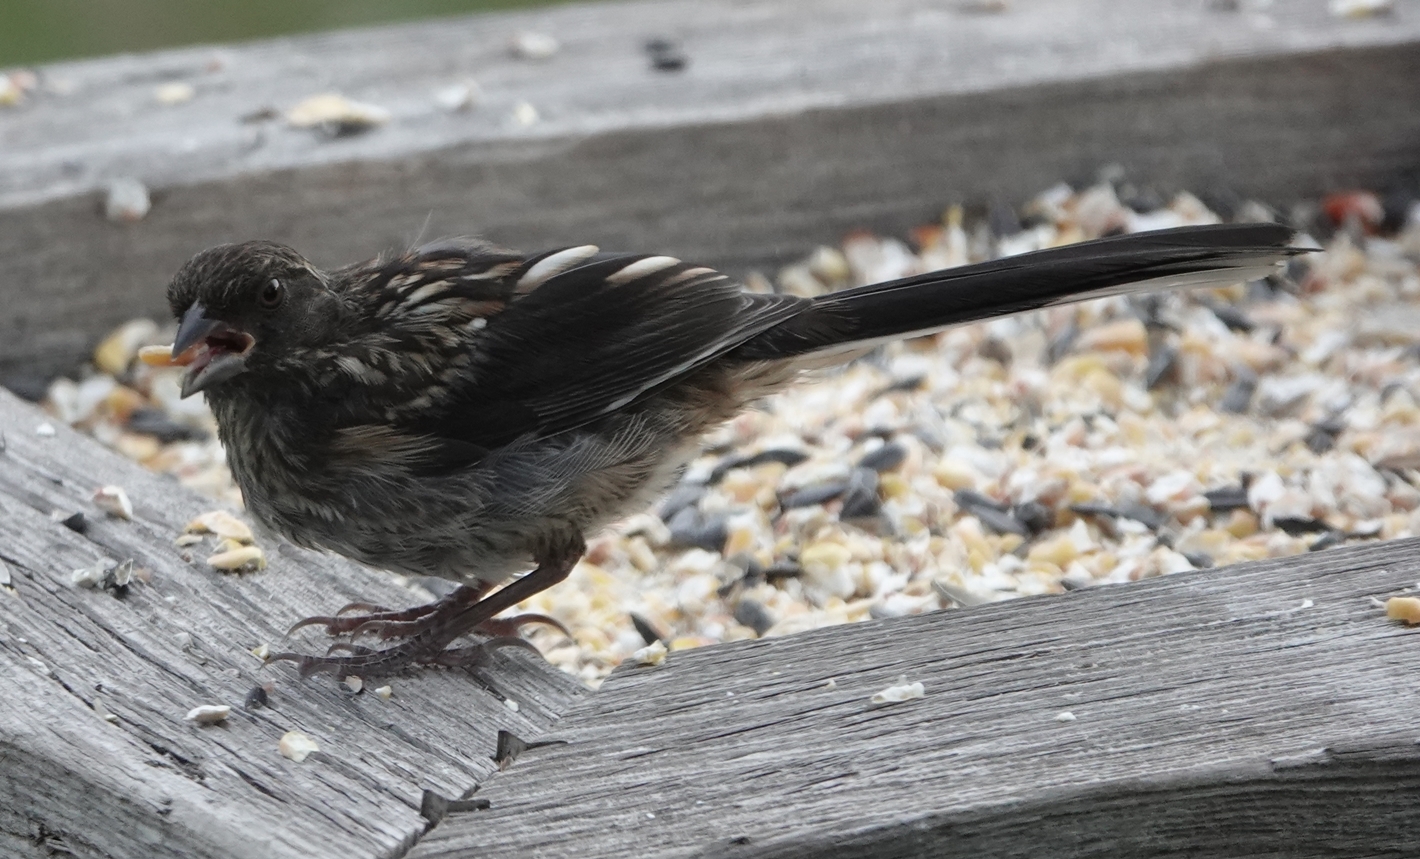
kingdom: Animalia
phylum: Chordata
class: Aves
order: Passeriformes
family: Passerellidae
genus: Pipilo
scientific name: Pipilo maculatus
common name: Spotted towhee
